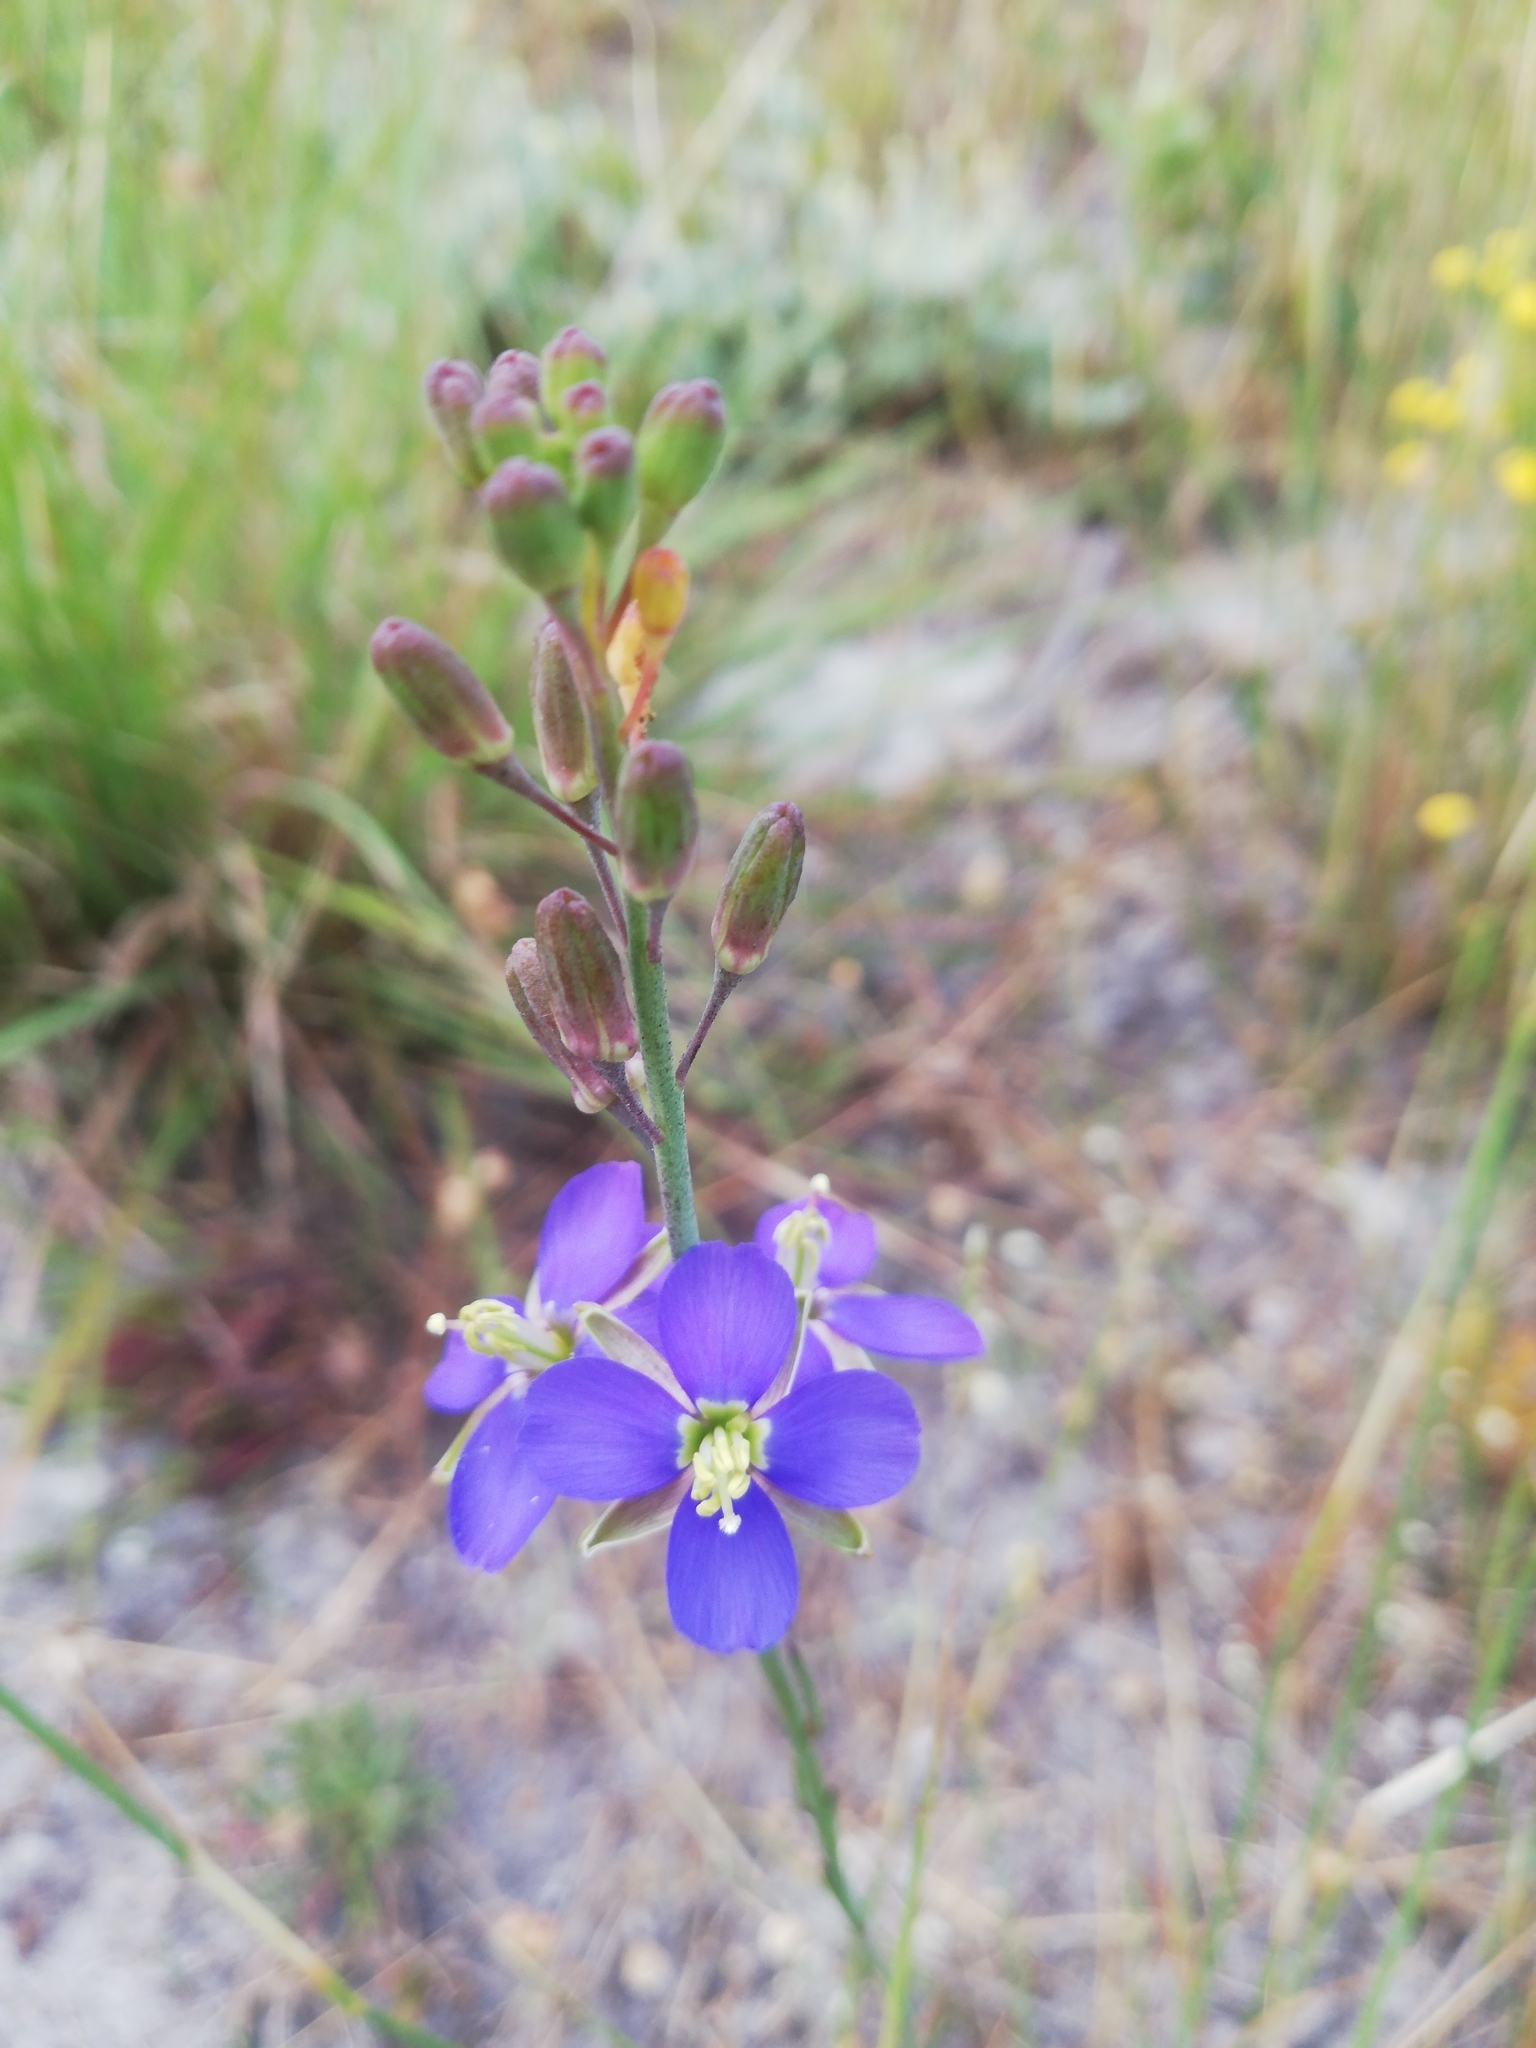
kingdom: Plantae
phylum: Tracheophyta
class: Magnoliopsida
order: Brassicales
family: Brassicaceae
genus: Heliophila
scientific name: Heliophila linearis
